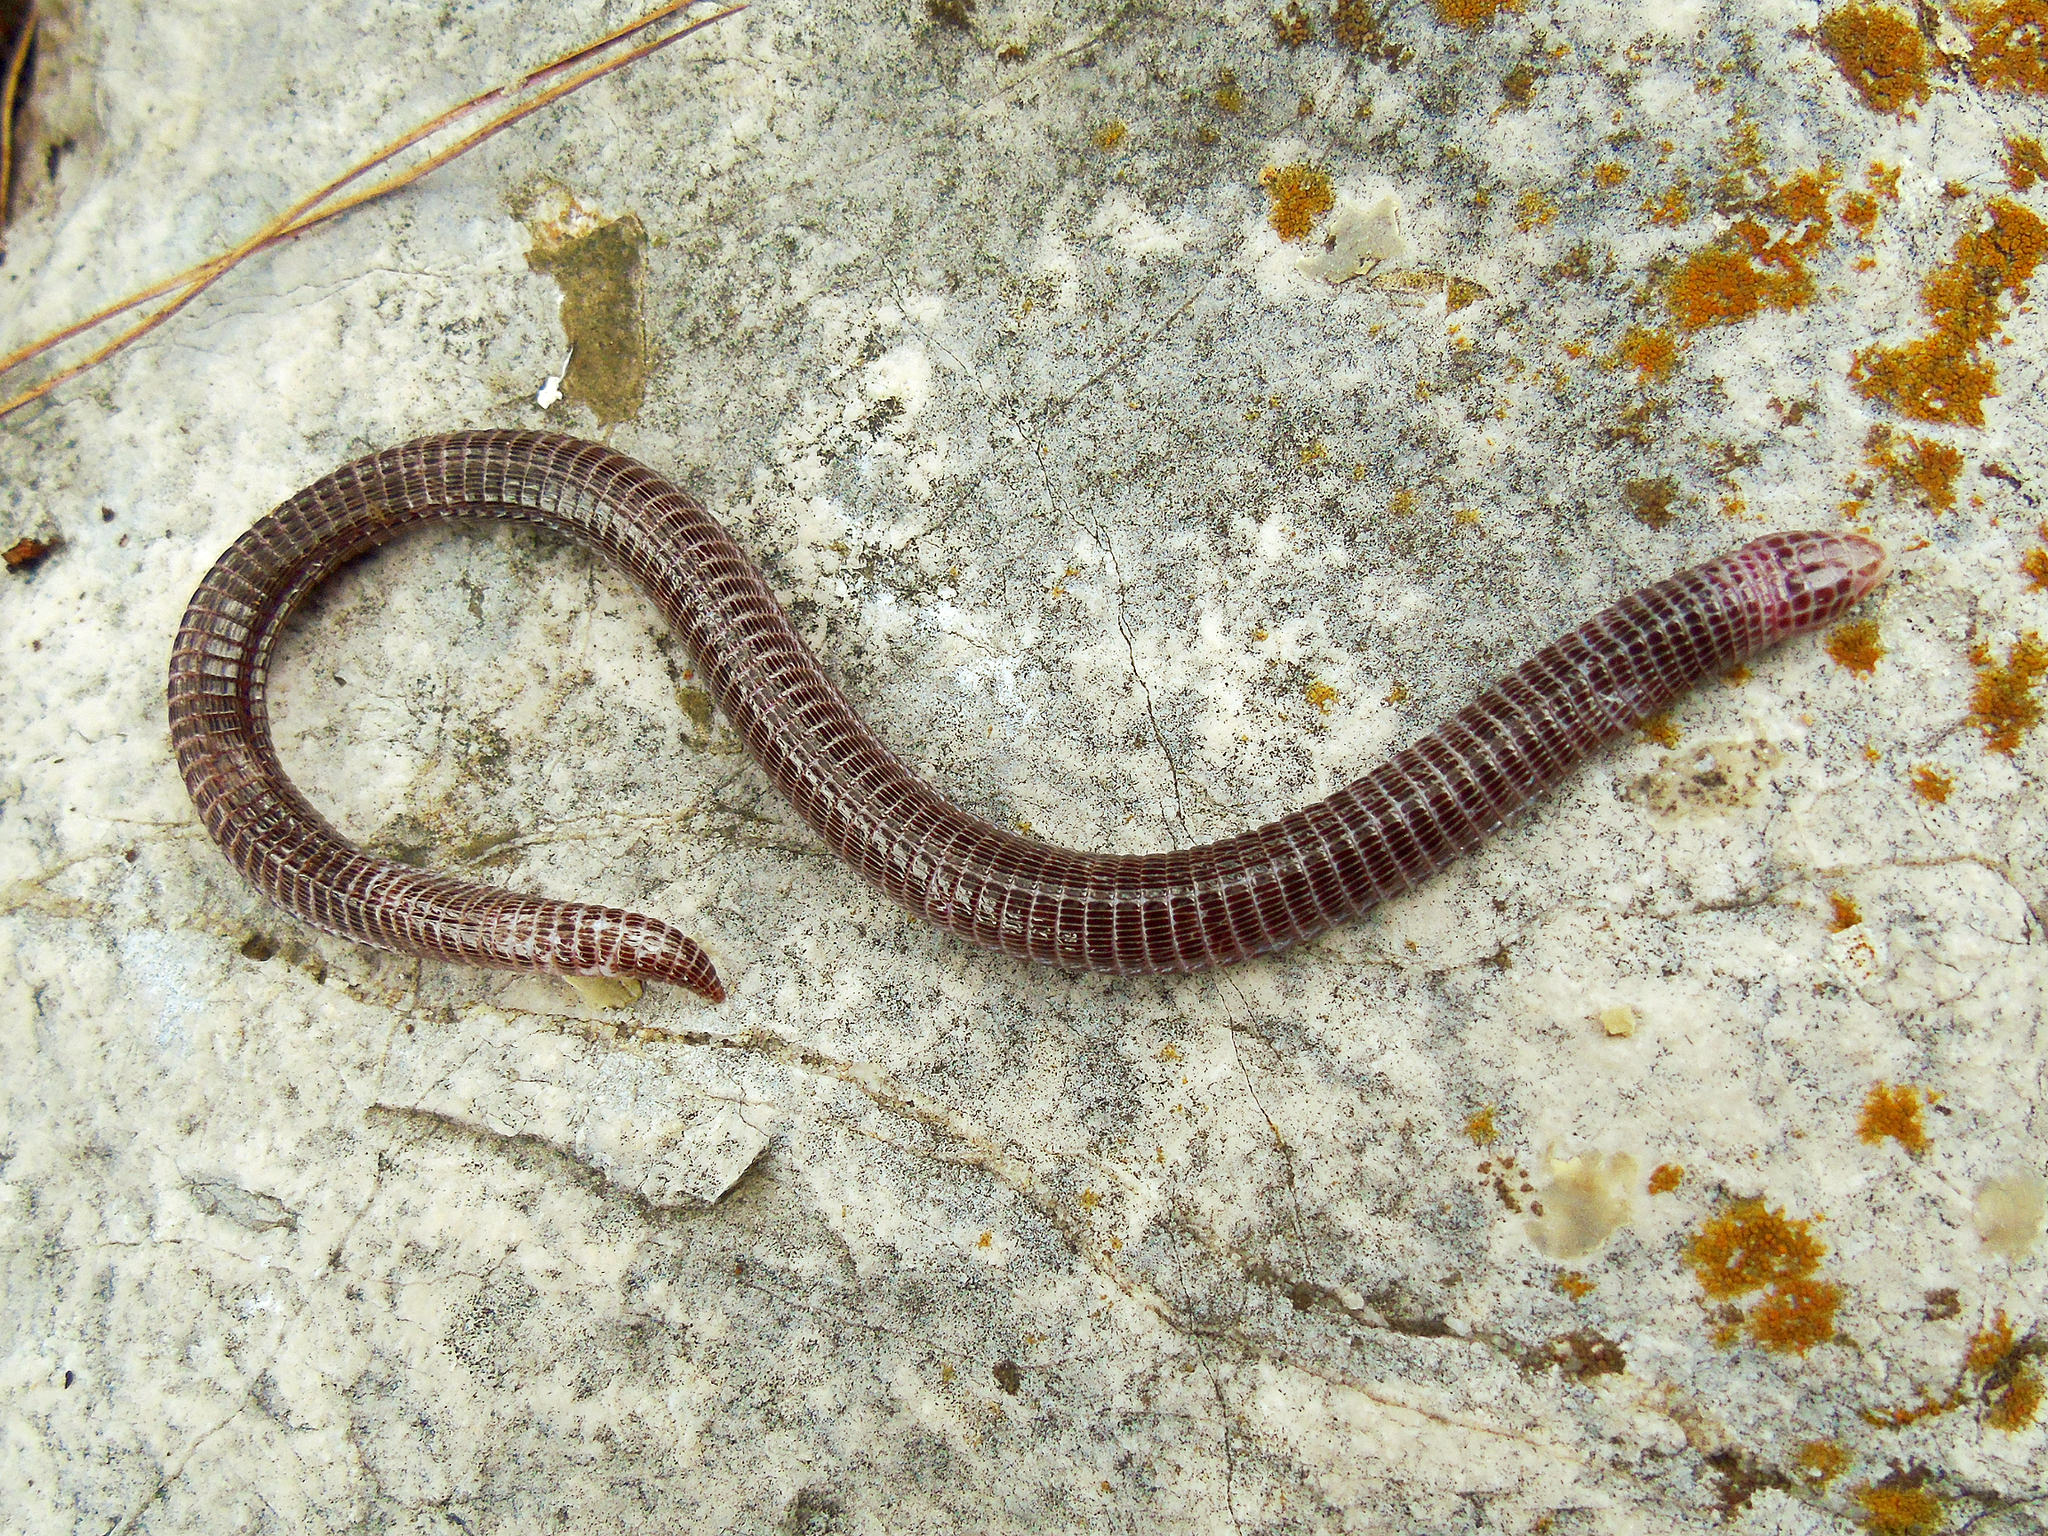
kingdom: Animalia
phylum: Chordata
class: Squamata
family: Blanidae
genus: Blanus
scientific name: Blanus aporus
